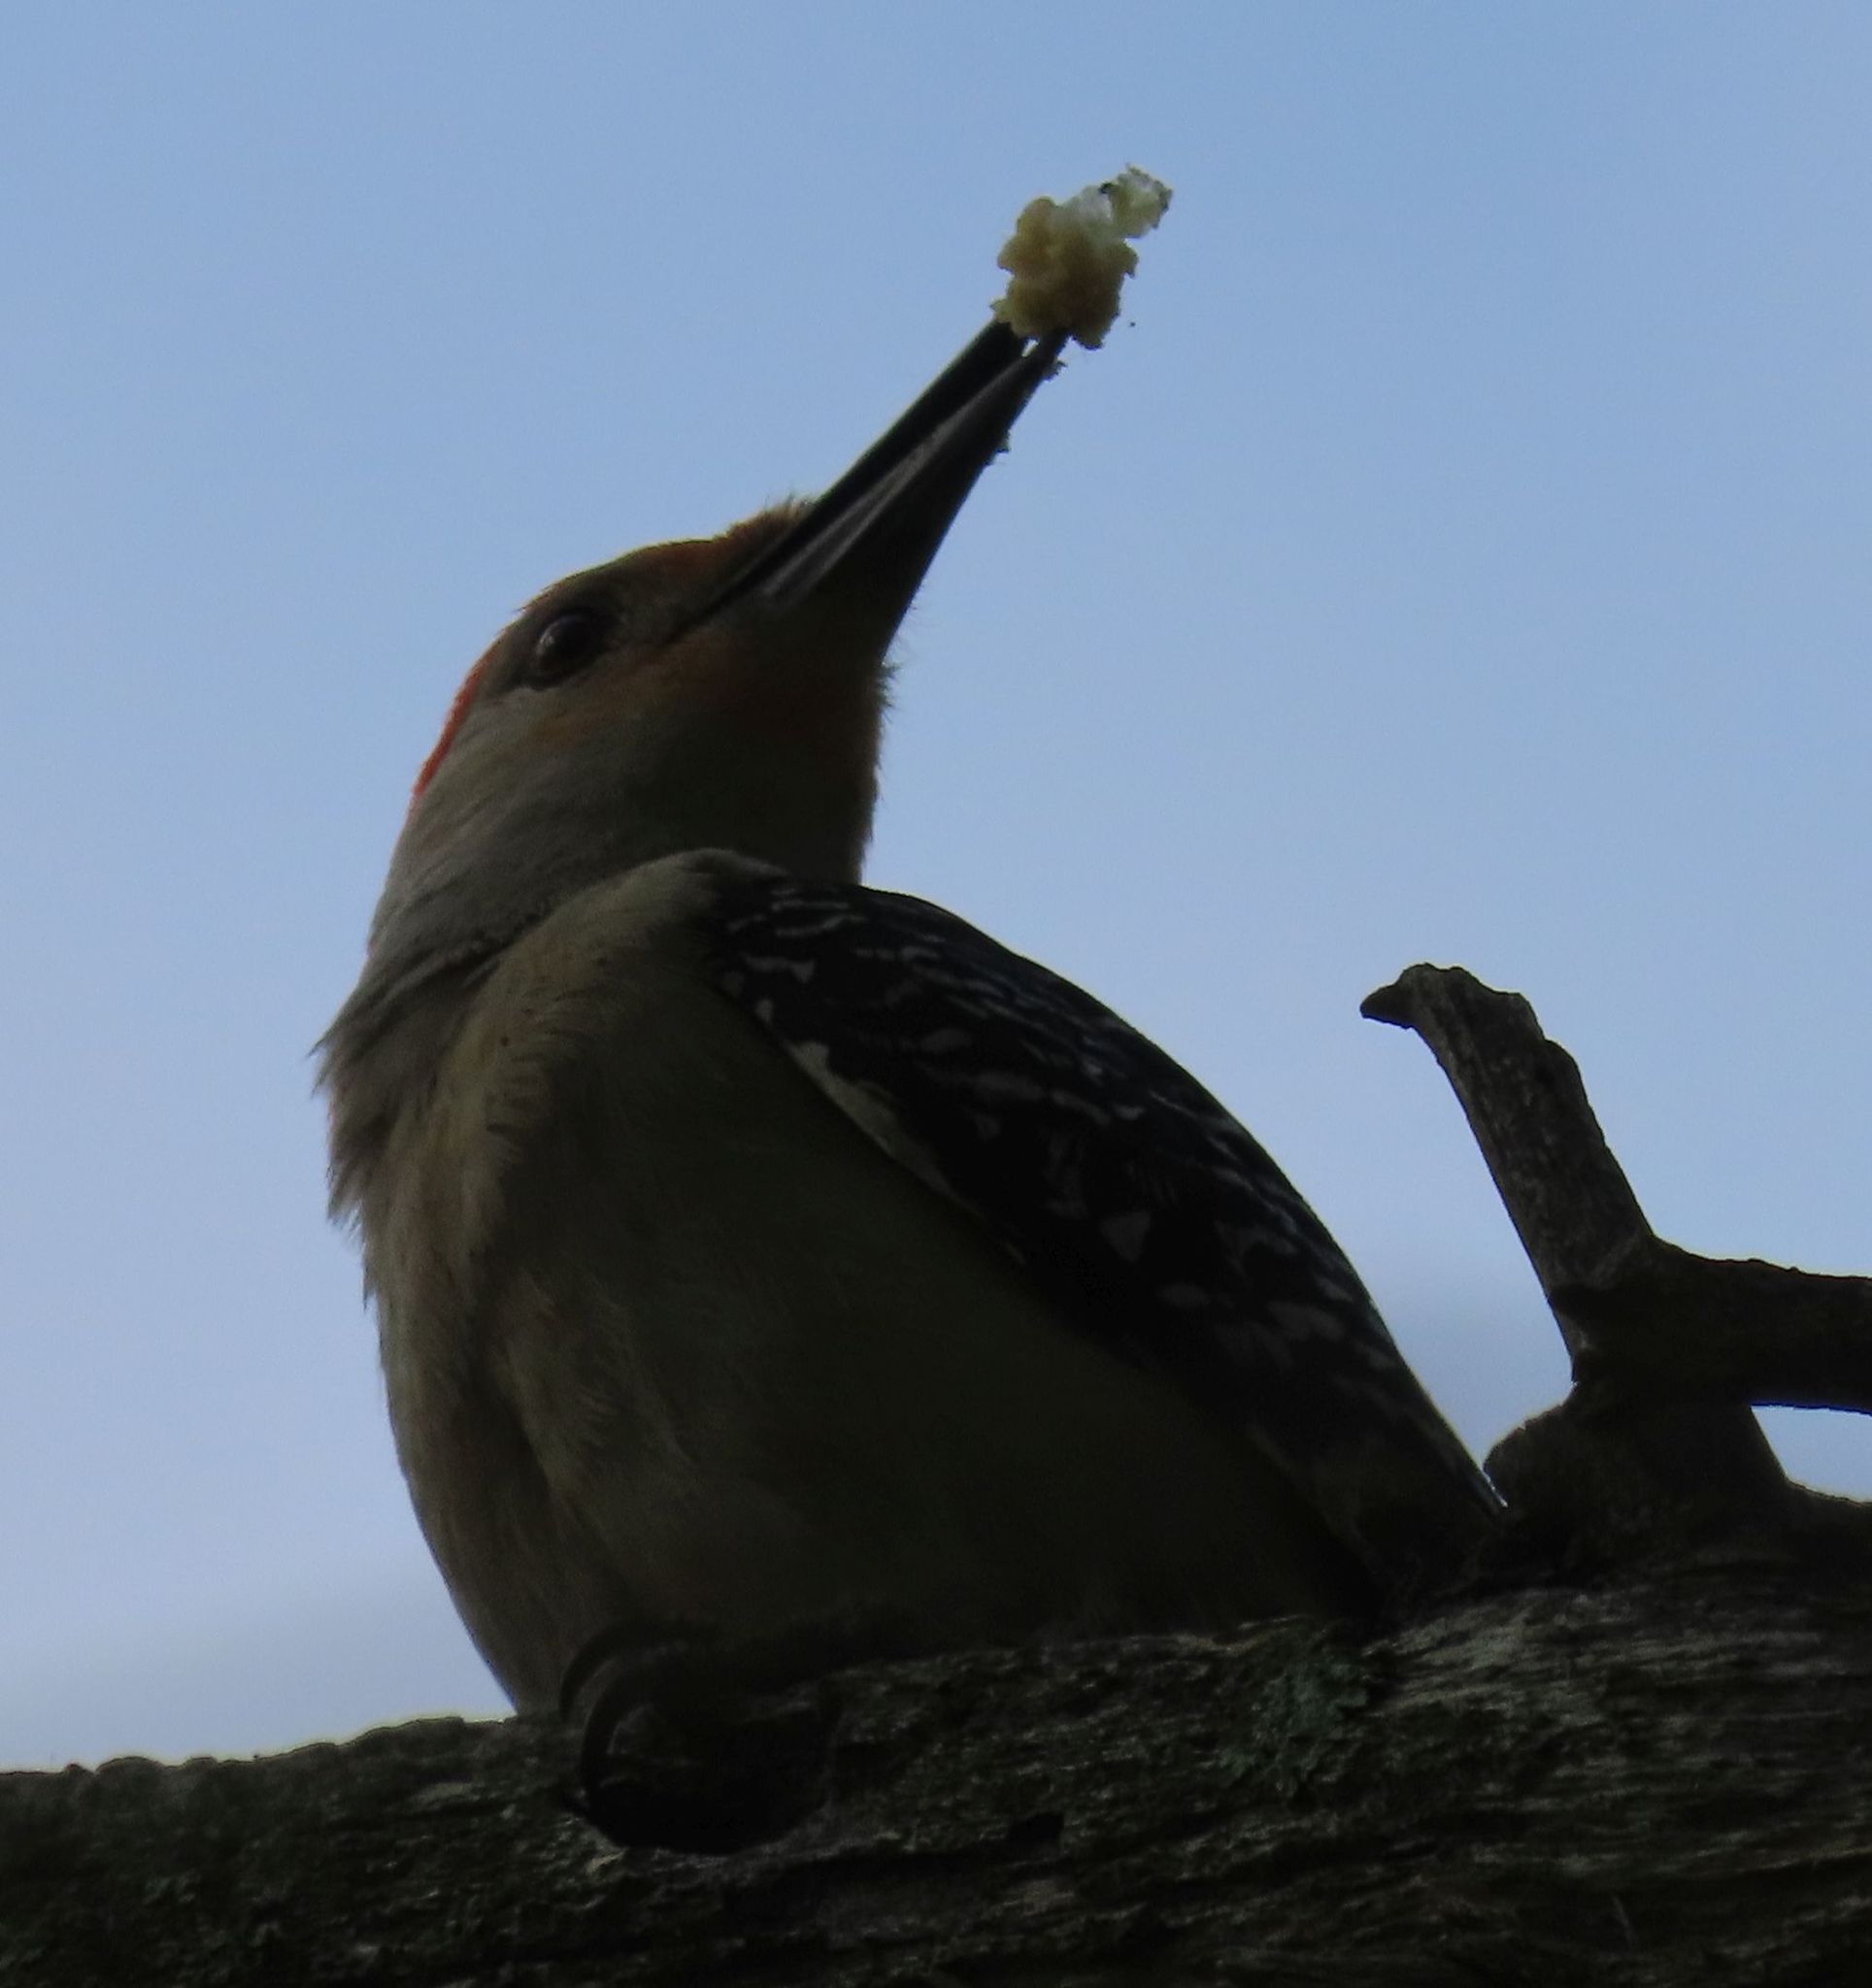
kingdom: Animalia
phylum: Chordata
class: Aves
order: Piciformes
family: Picidae
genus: Melanerpes
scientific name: Melanerpes carolinus
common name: Red-bellied woodpecker
